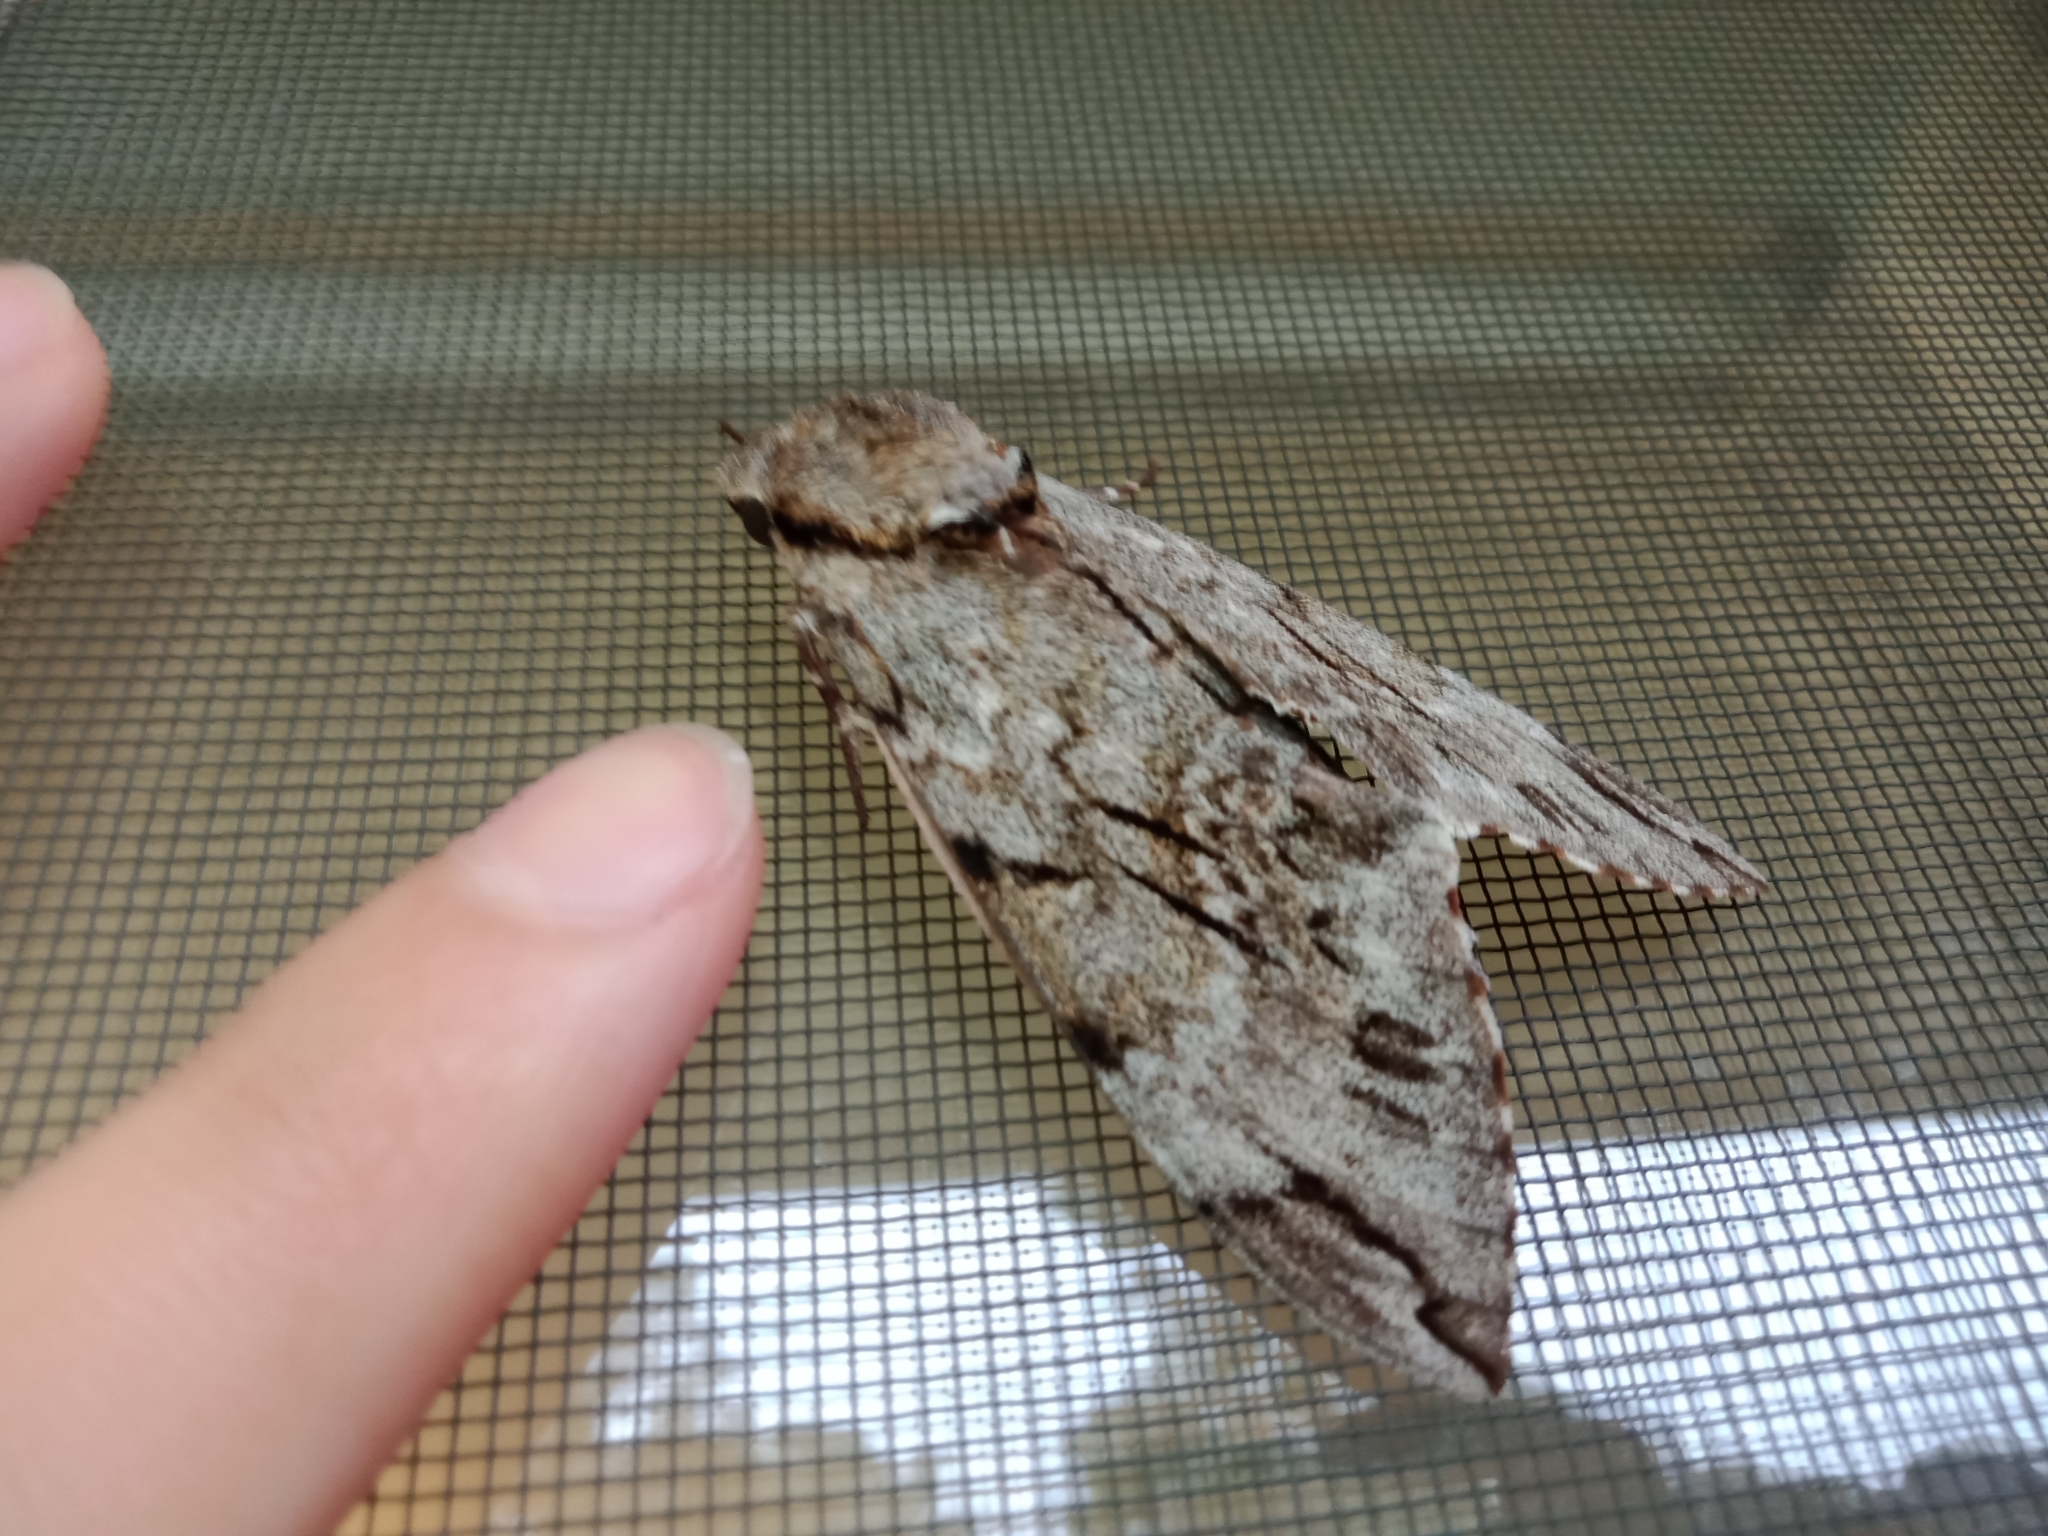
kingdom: Animalia
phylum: Arthropoda
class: Insecta
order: Lepidoptera
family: Sphingidae
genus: Psilogramma
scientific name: Psilogramma casuarinae
